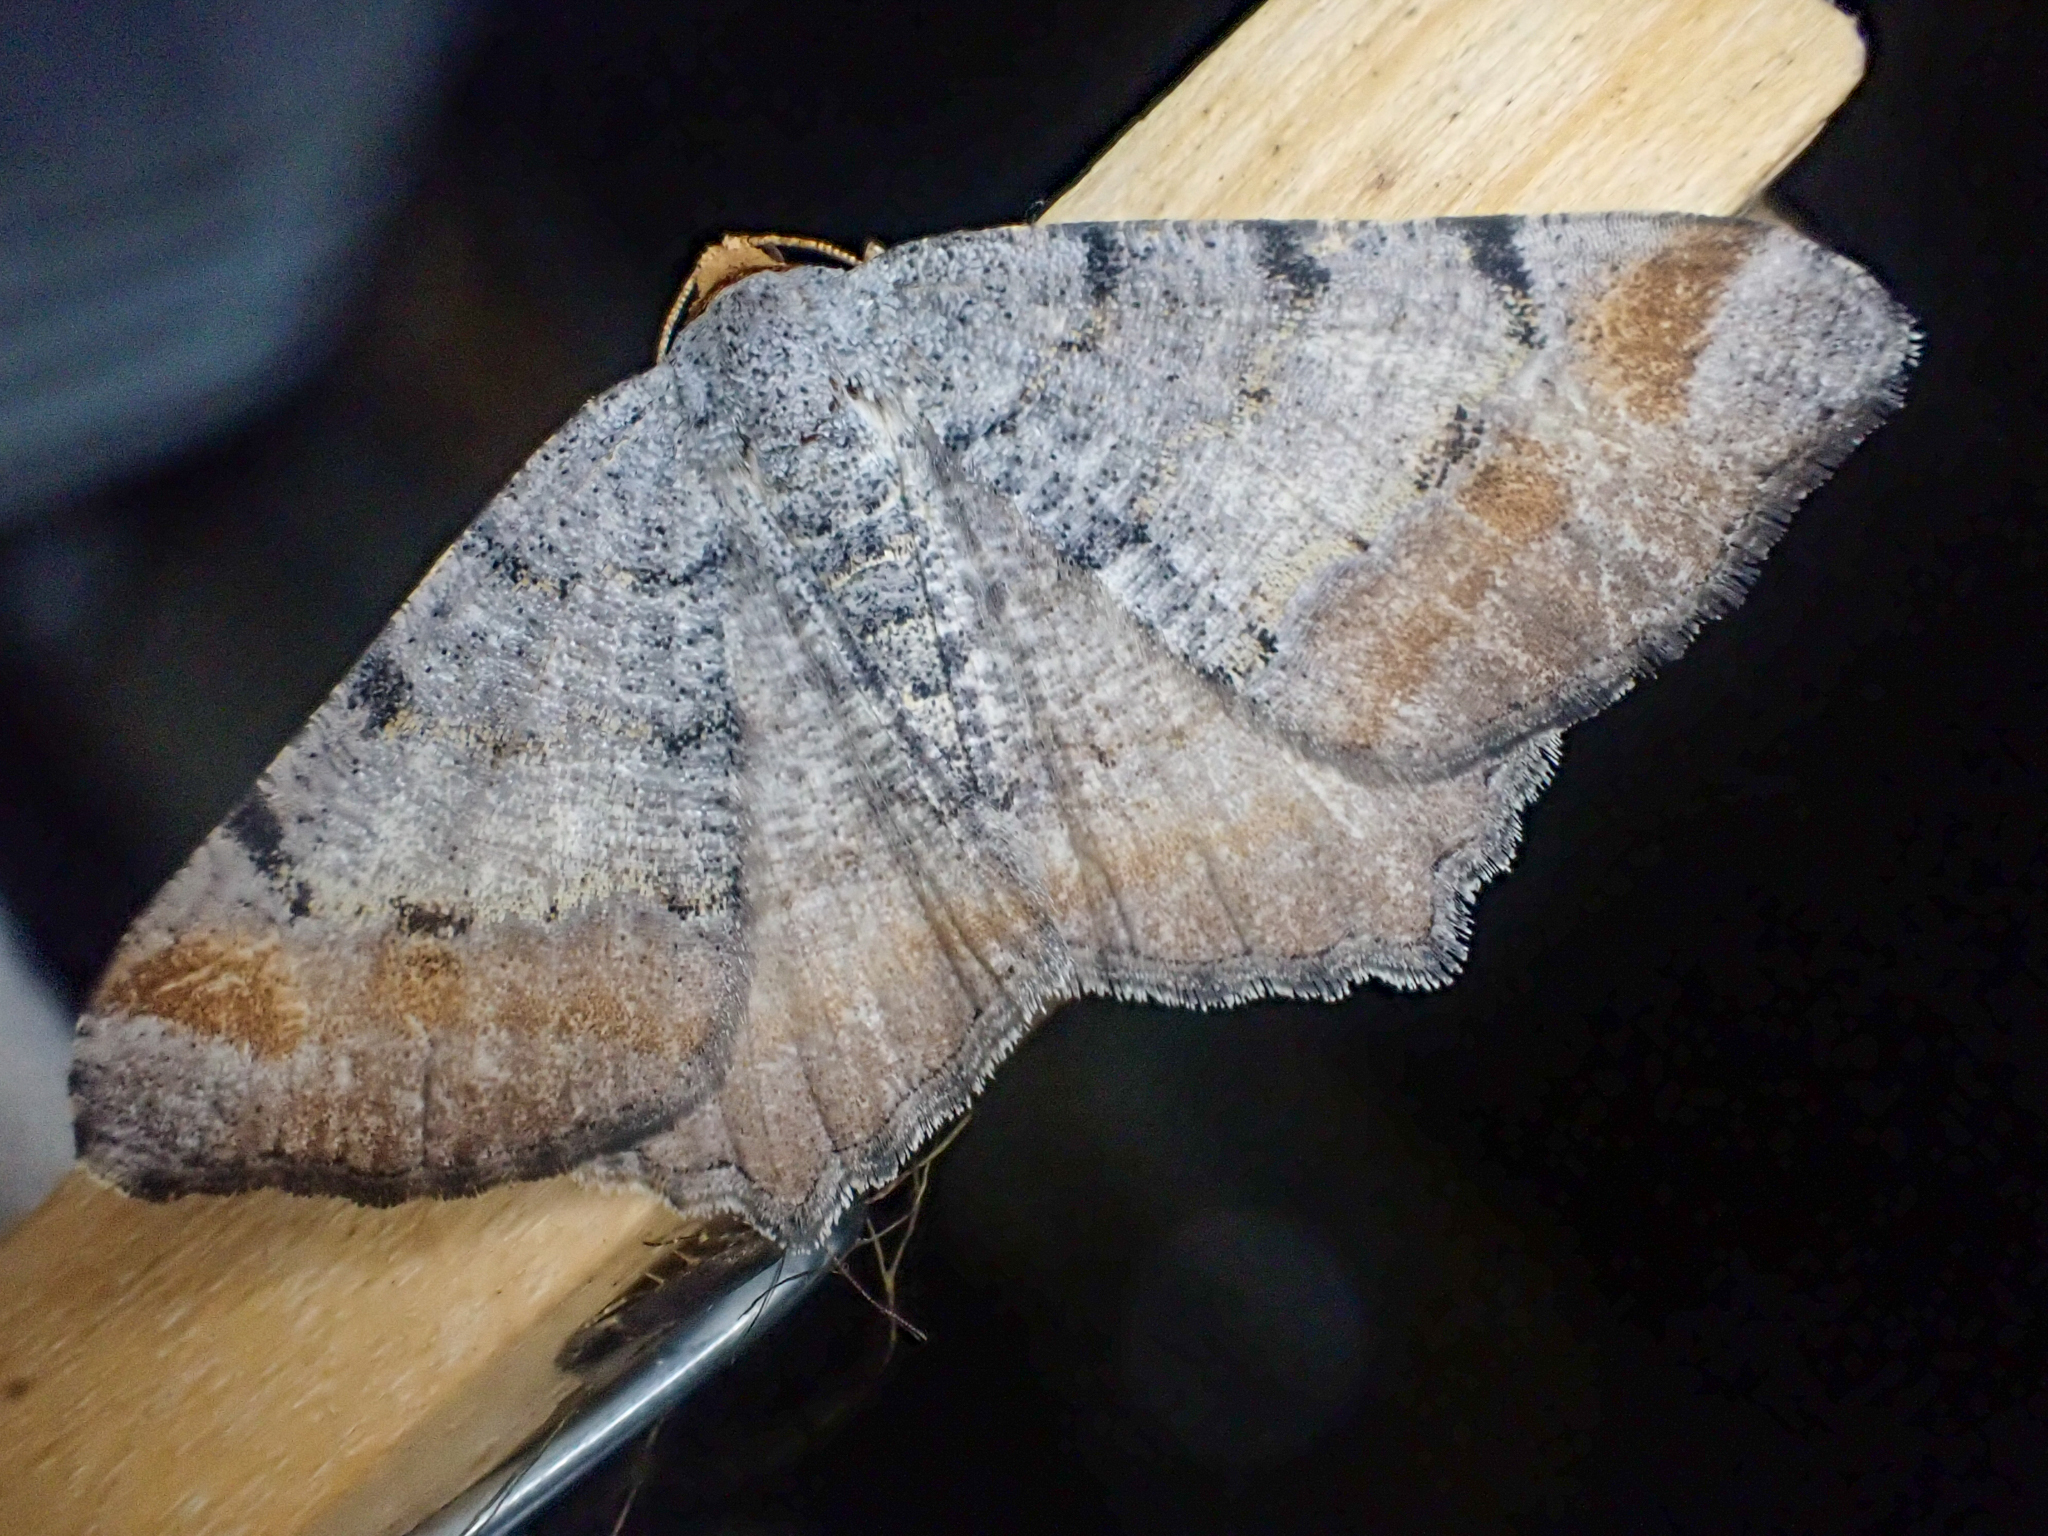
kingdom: Animalia
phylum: Arthropoda
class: Insecta
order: Lepidoptera
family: Geometridae
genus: Macaria
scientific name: Macaria adonis
